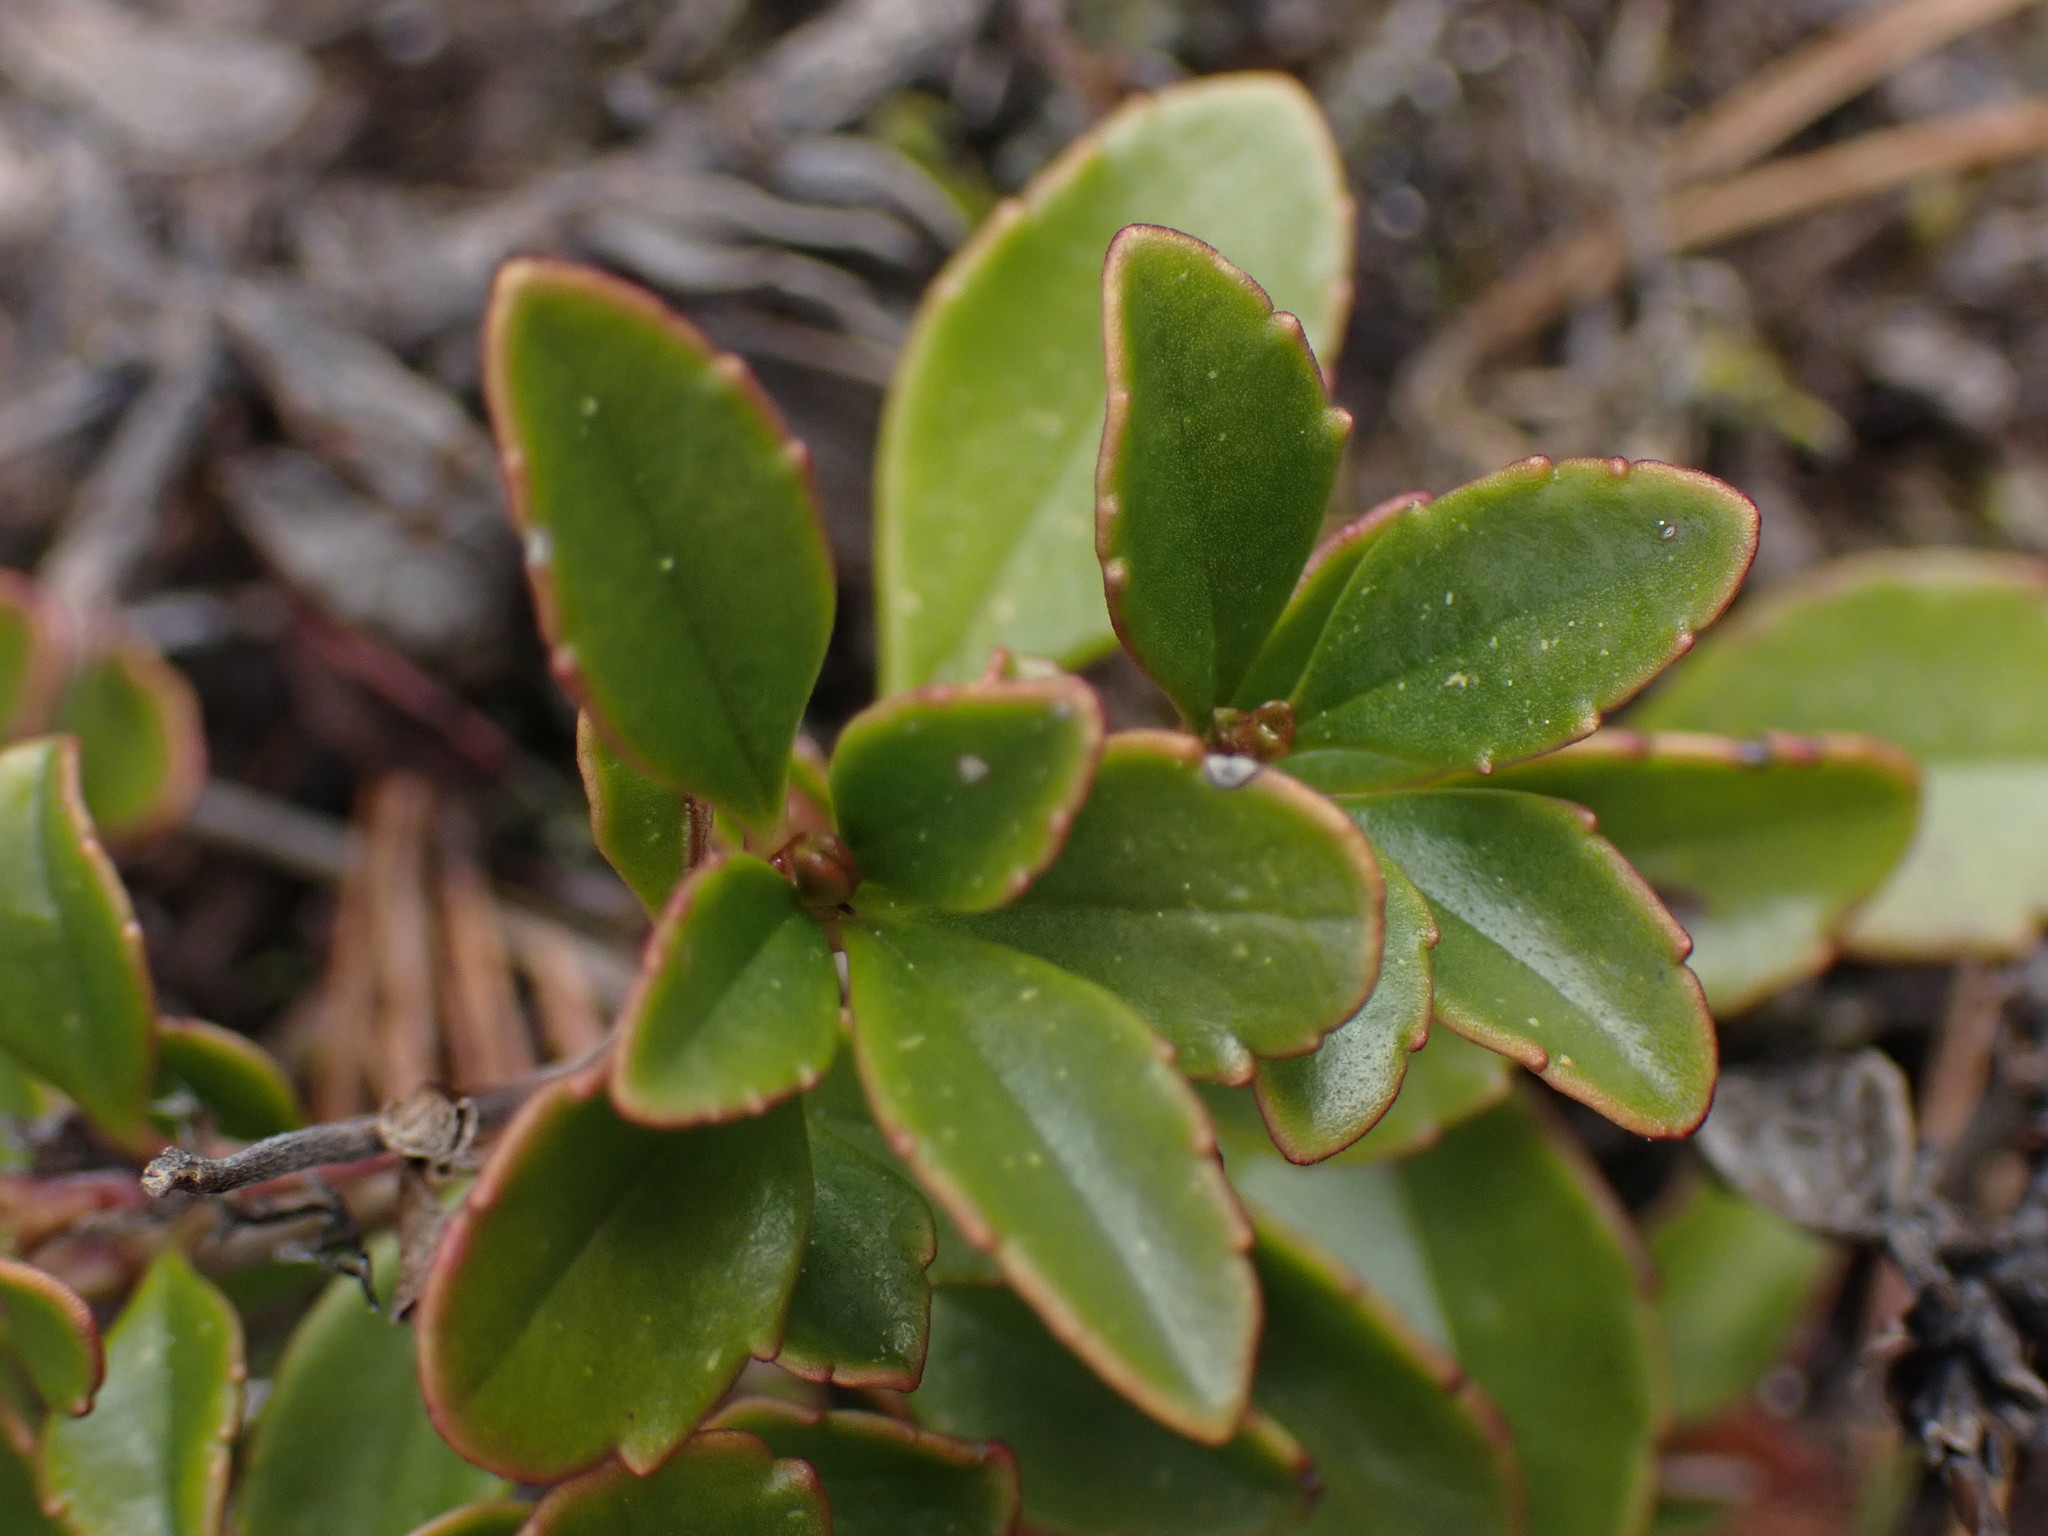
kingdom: Plantae
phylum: Tracheophyta
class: Magnoliopsida
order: Lamiales
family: Plantaginaceae
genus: Penstemon
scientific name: Penstemon davidsonii
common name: Davidson's penstemon
